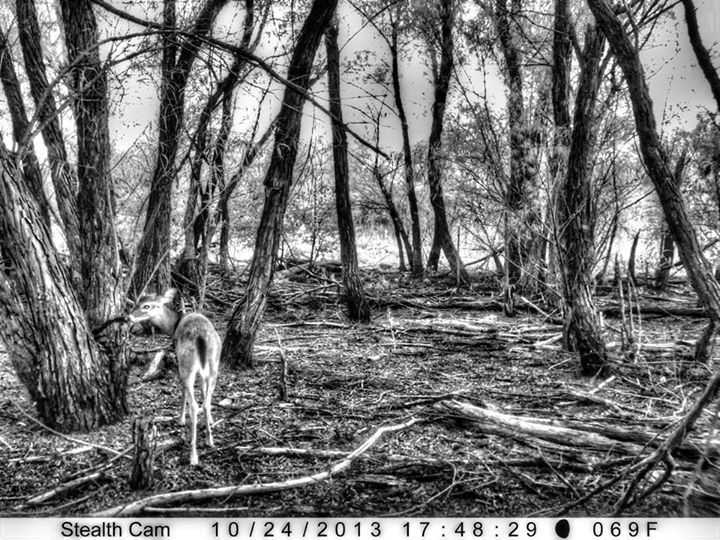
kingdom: Animalia
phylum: Chordata
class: Mammalia
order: Artiodactyla
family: Cervidae
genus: Odocoileus
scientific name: Odocoileus virginianus
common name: White-tailed deer
